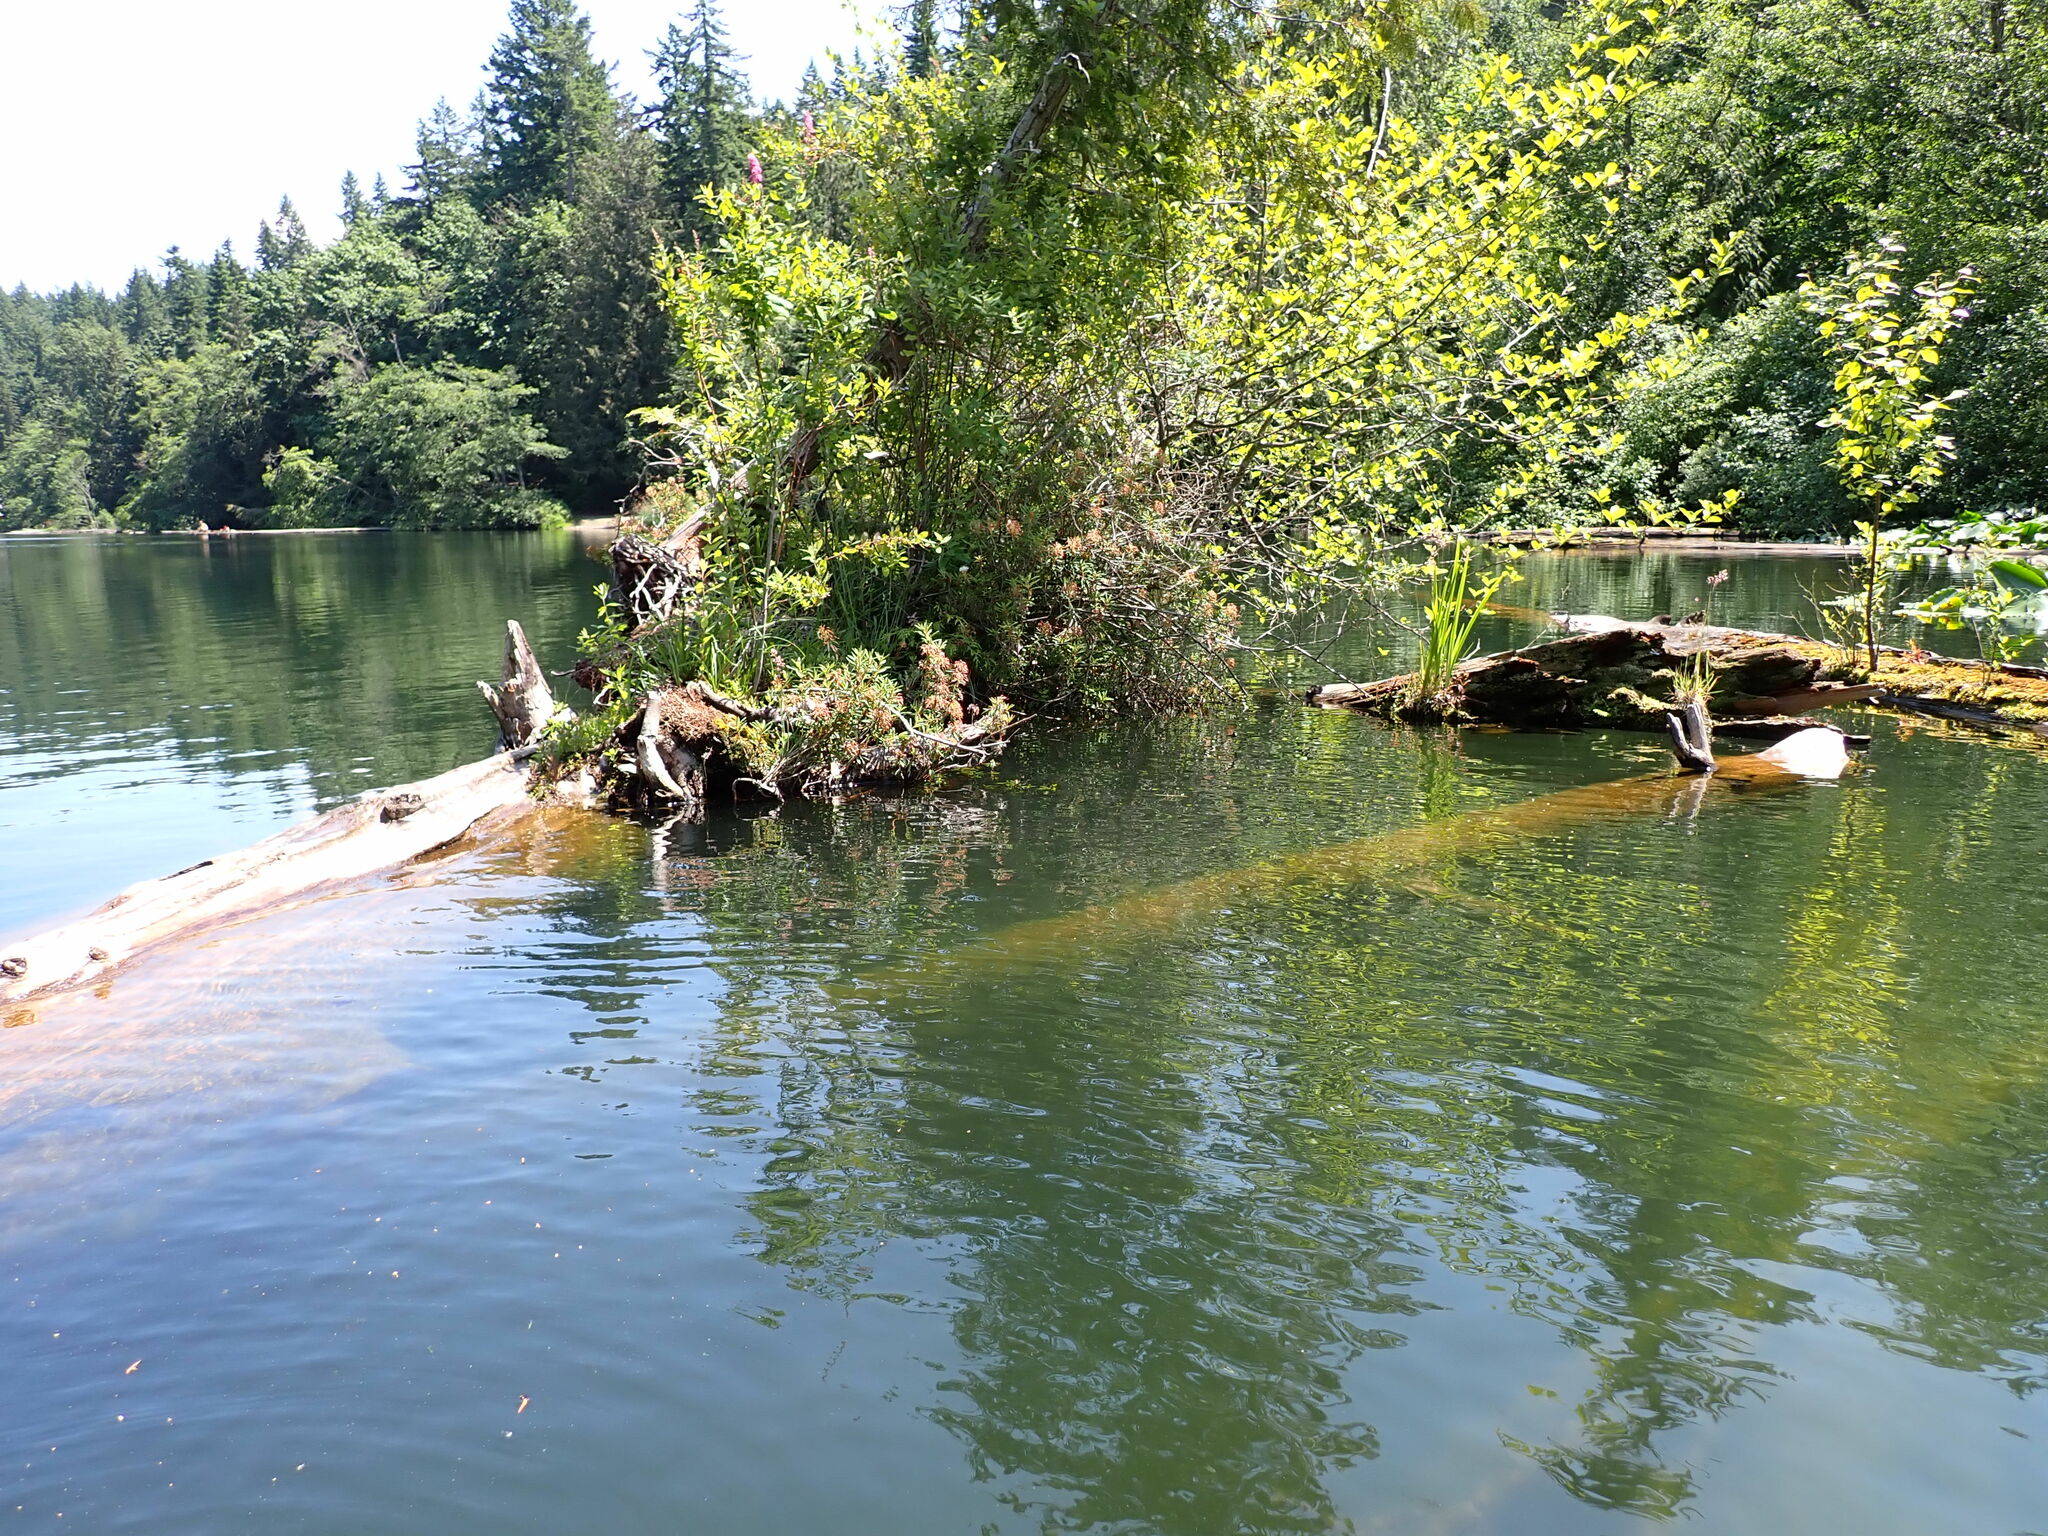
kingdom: Plantae
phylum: Tracheophyta
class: Magnoliopsida
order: Ericales
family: Ericaceae
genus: Rhododendron
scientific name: Rhododendron groenlandicum
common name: Bog labrador tea
